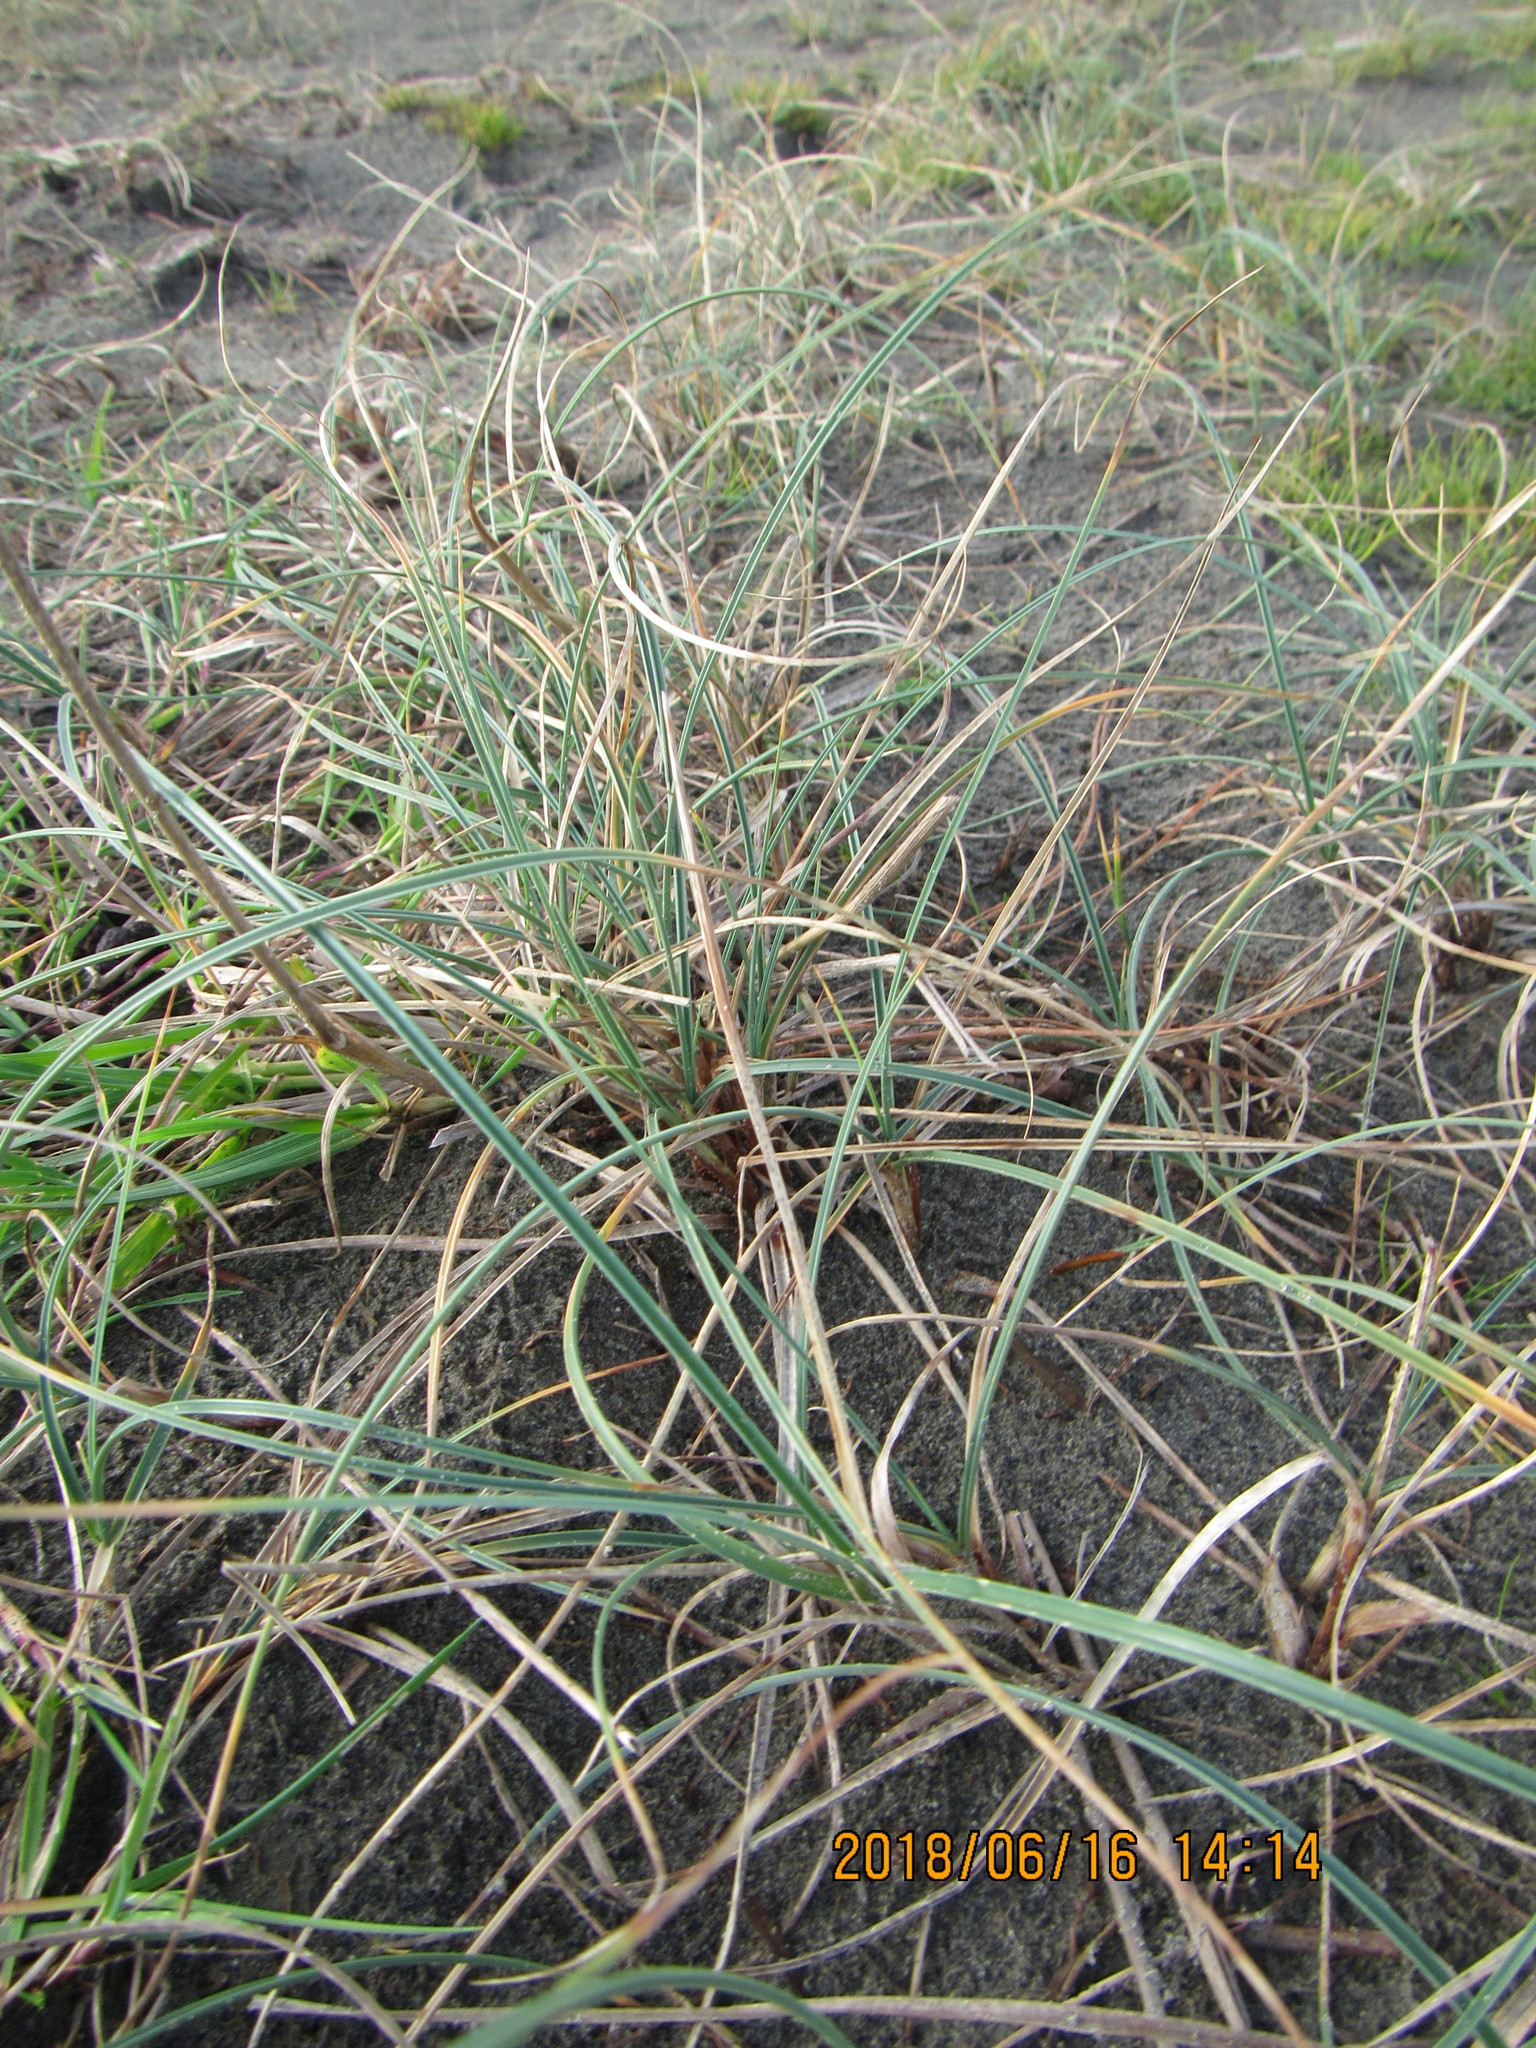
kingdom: Plantae
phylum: Tracheophyta
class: Liliopsida
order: Poales
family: Cyperaceae
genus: Carex
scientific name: Carex pumila
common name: Dwarf sedge
